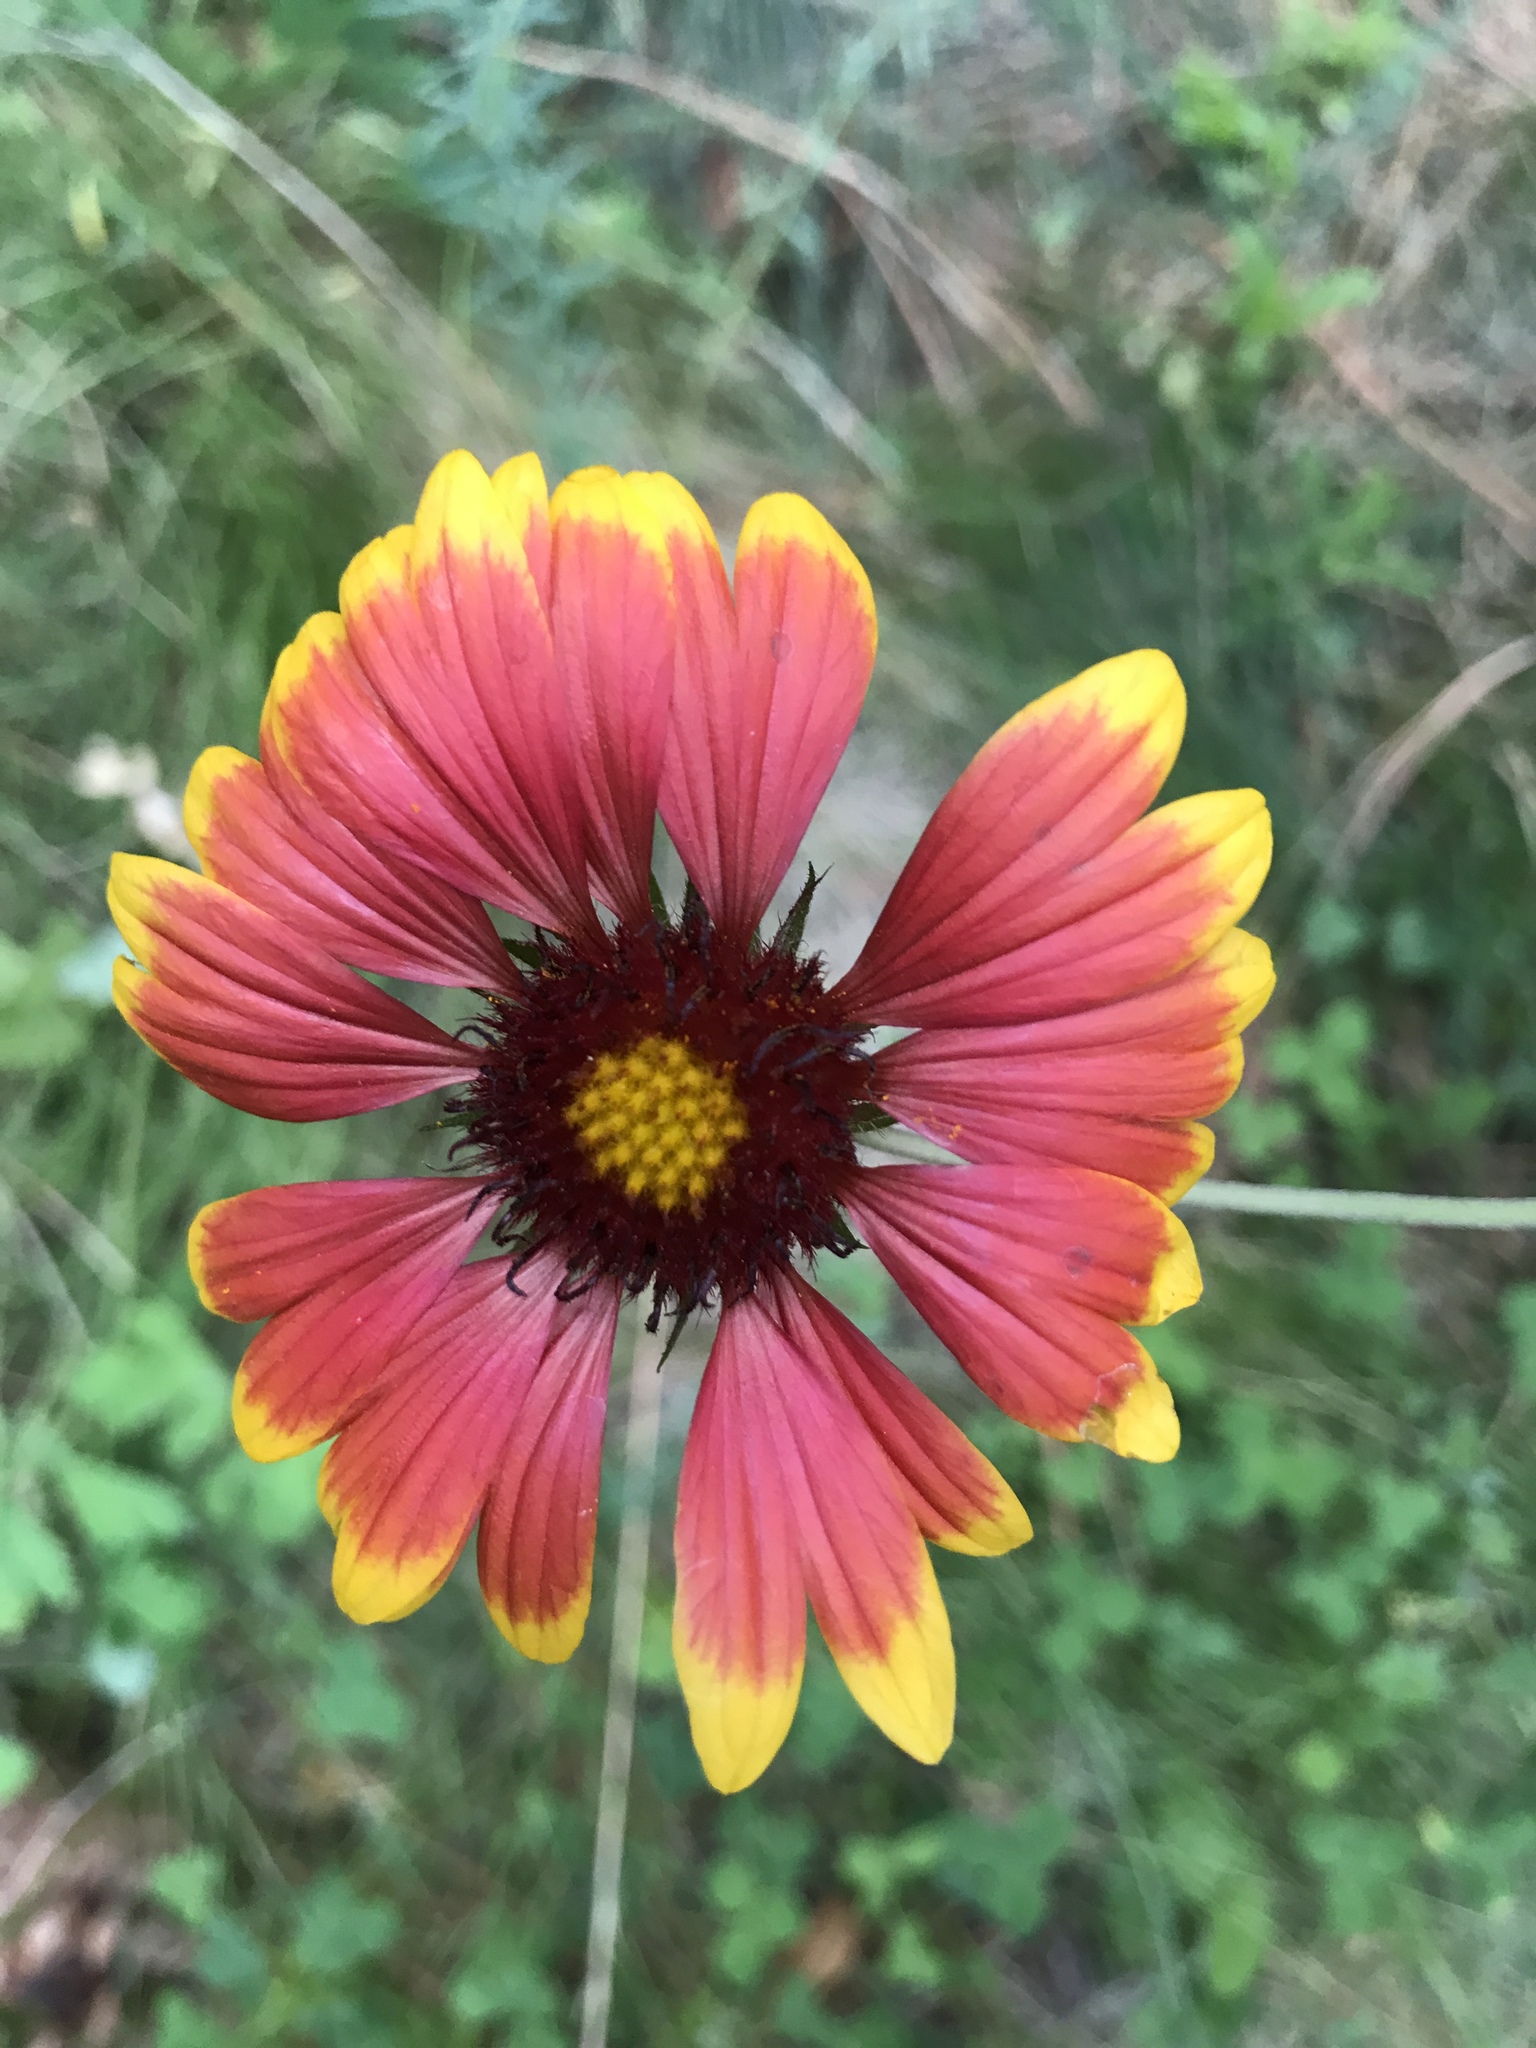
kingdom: Plantae
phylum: Tracheophyta
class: Magnoliopsida
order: Asterales
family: Asteraceae
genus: Gaillardia
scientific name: Gaillardia pulchella
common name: Firewheel
